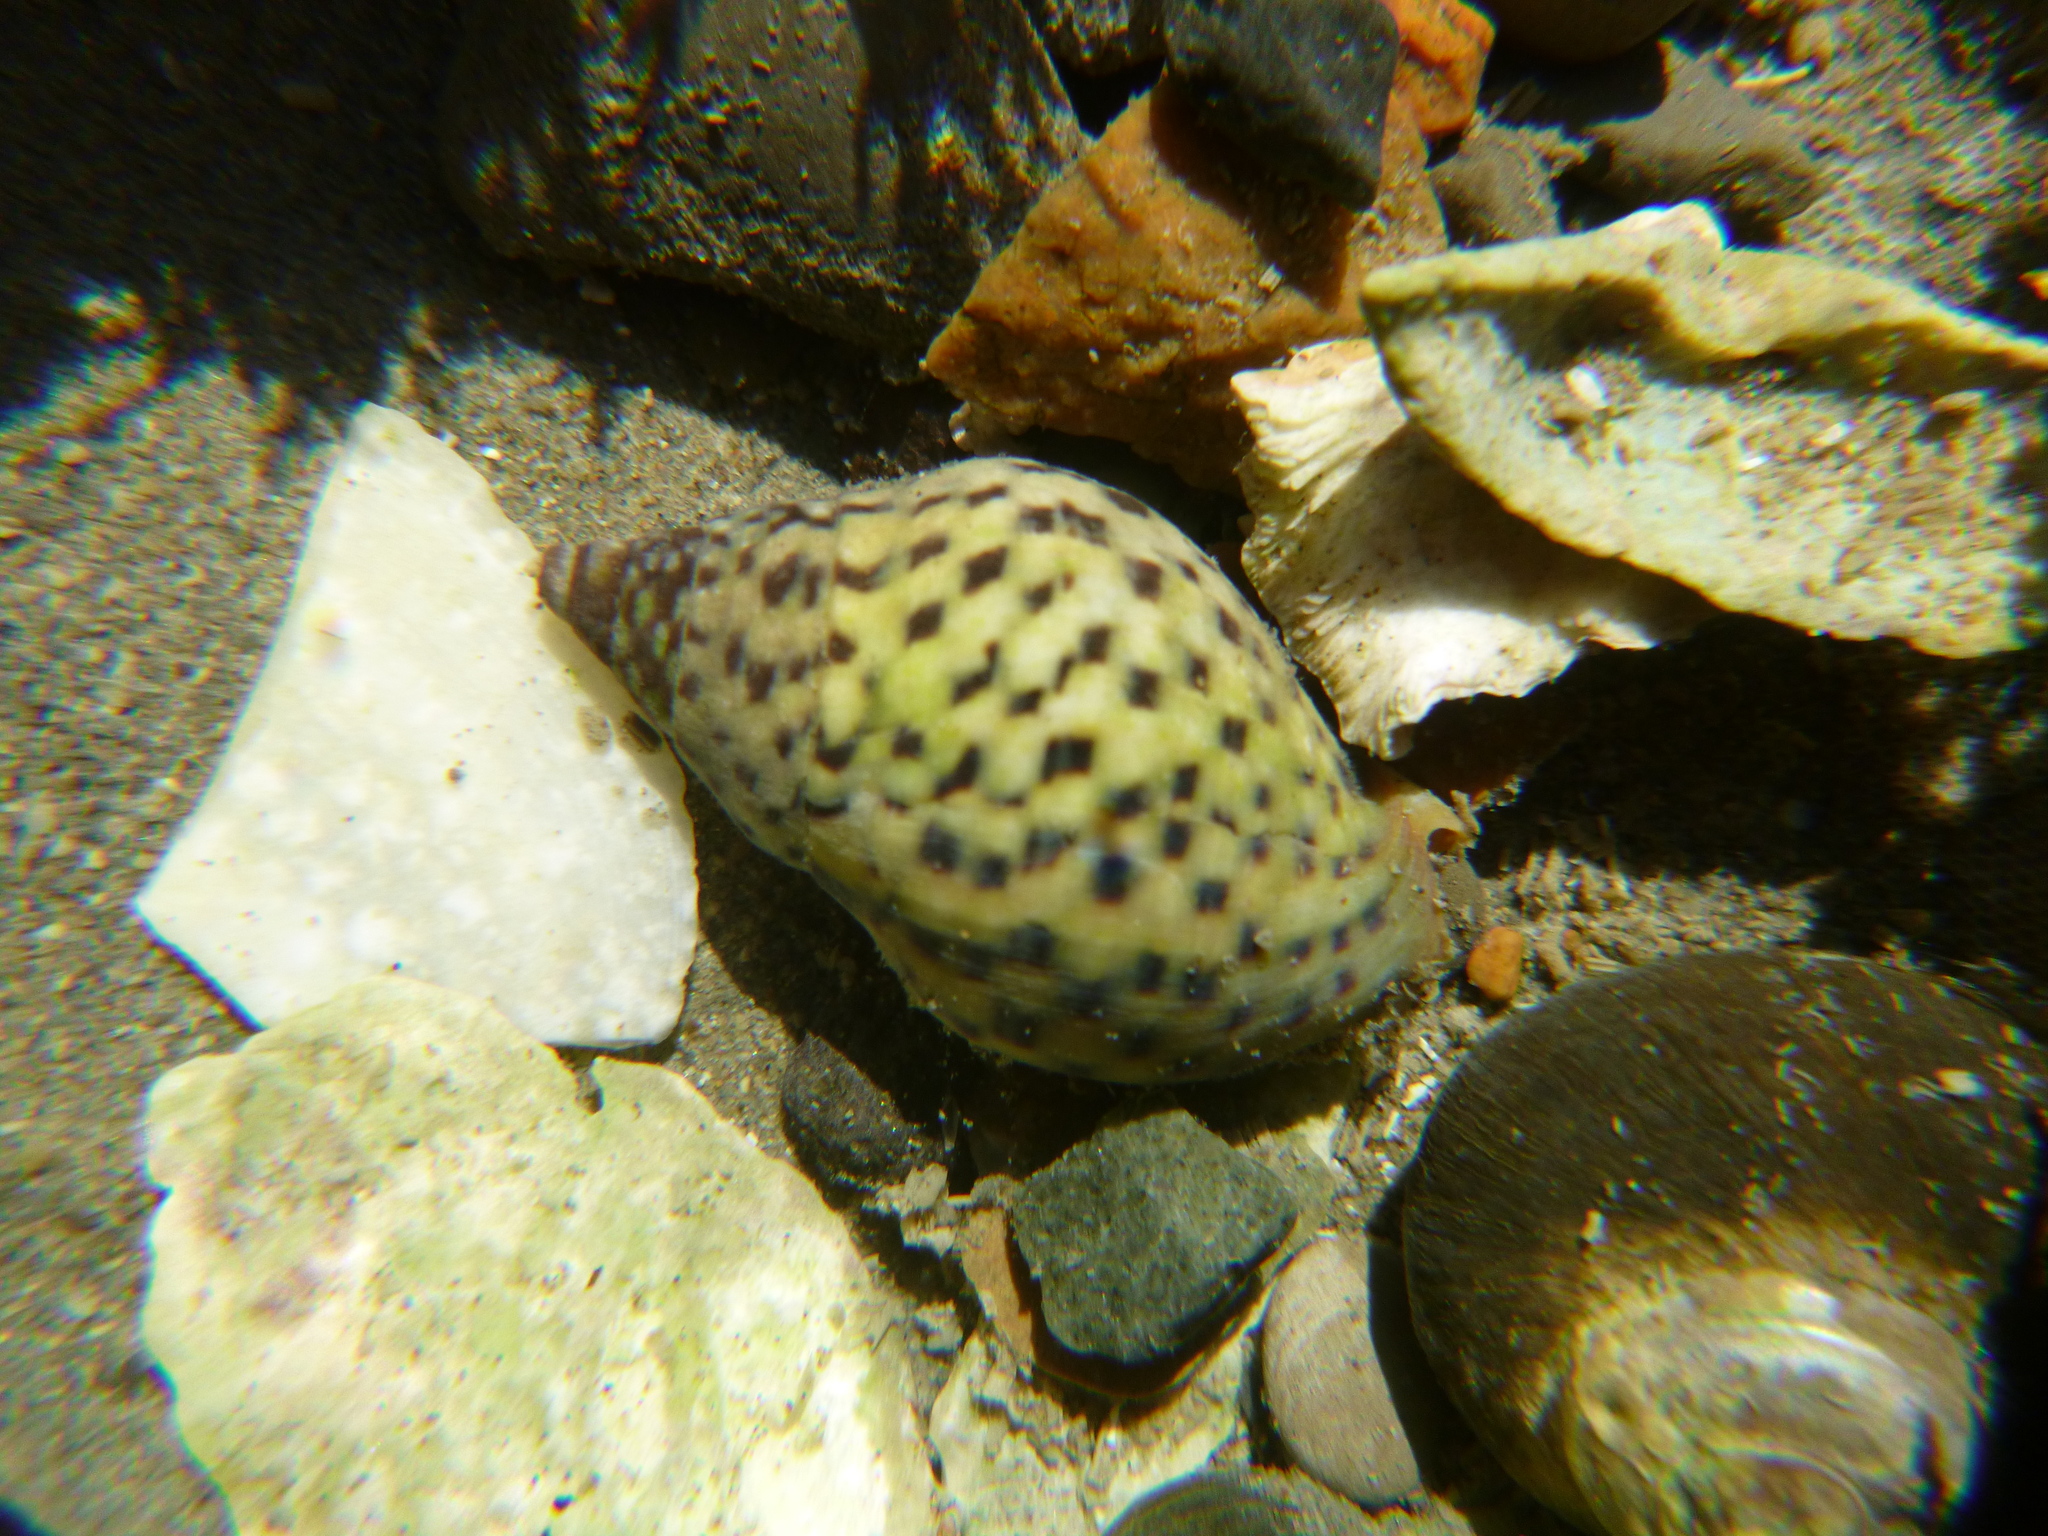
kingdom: Animalia
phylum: Mollusca
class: Gastropoda
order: Neogastropoda
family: Cominellidae
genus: Cominella
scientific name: Cominella maculosa
